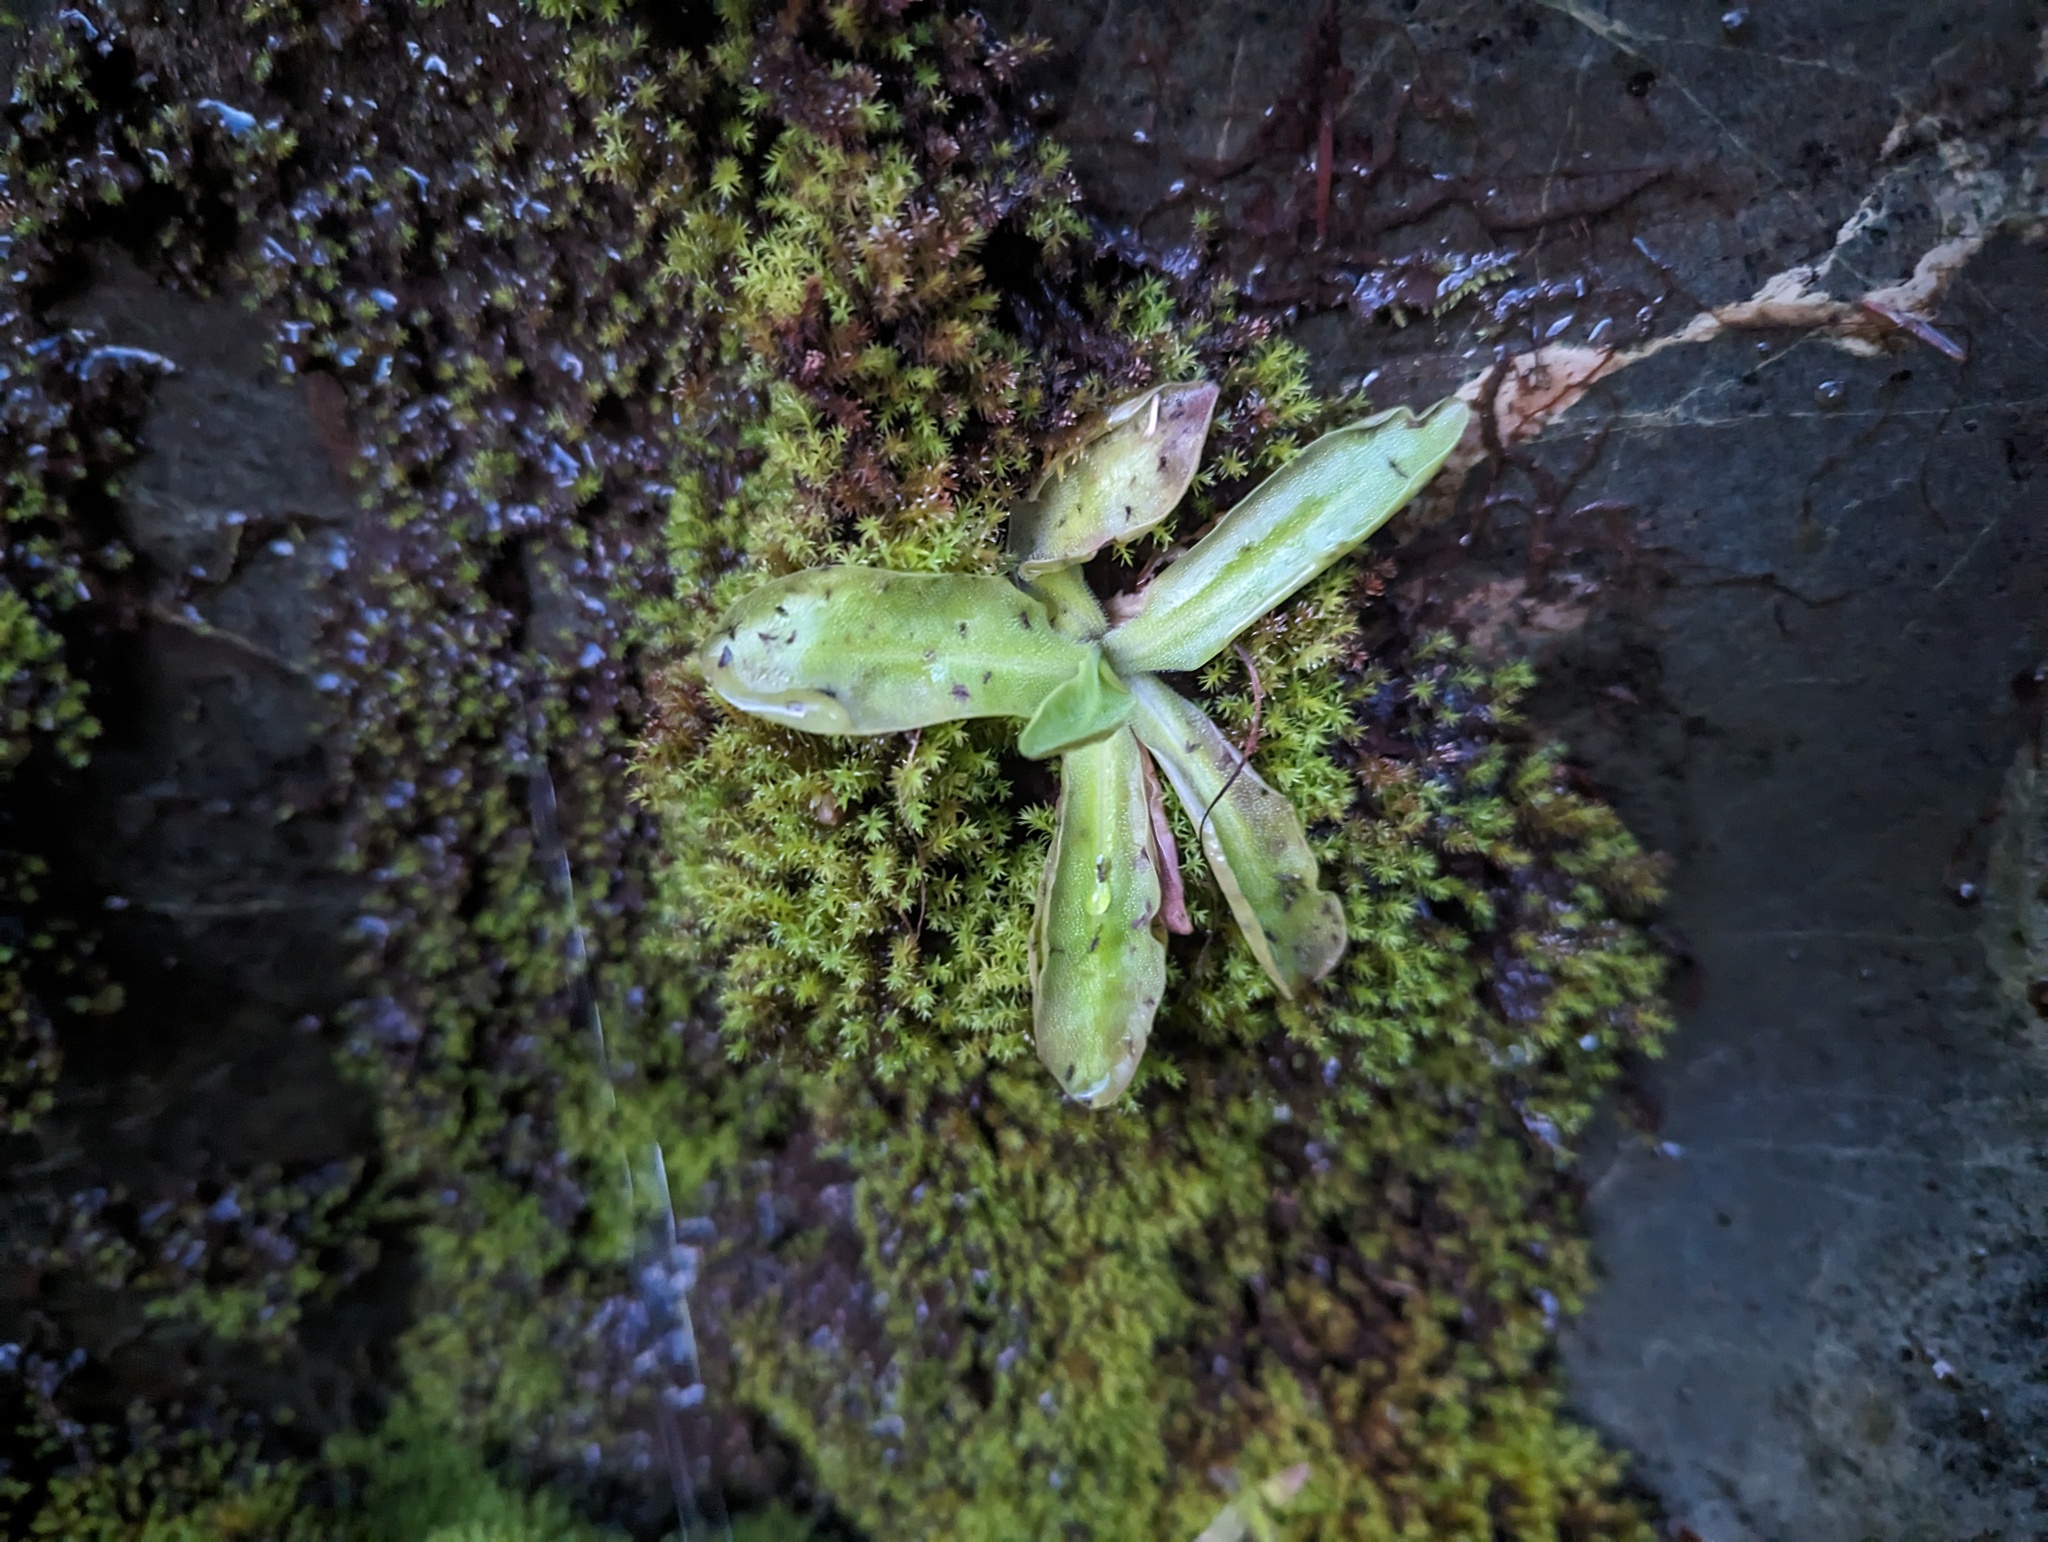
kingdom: Plantae
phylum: Tracheophyta
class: Magnoliopsida
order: Lamiales
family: Lentibulariaceae
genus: Pinguicula
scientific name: Pinguicula macroceras
